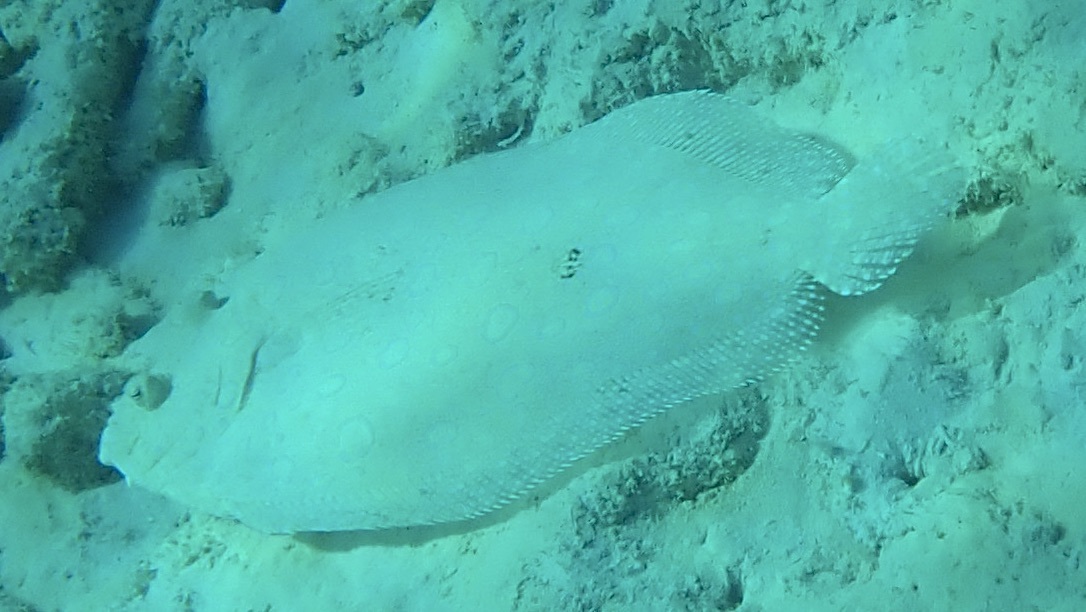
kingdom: Animalia
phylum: Chordata
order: Pleuronectiformes
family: Bothidae
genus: Bothus
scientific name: Bothus lunatus
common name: Peacock flounder
